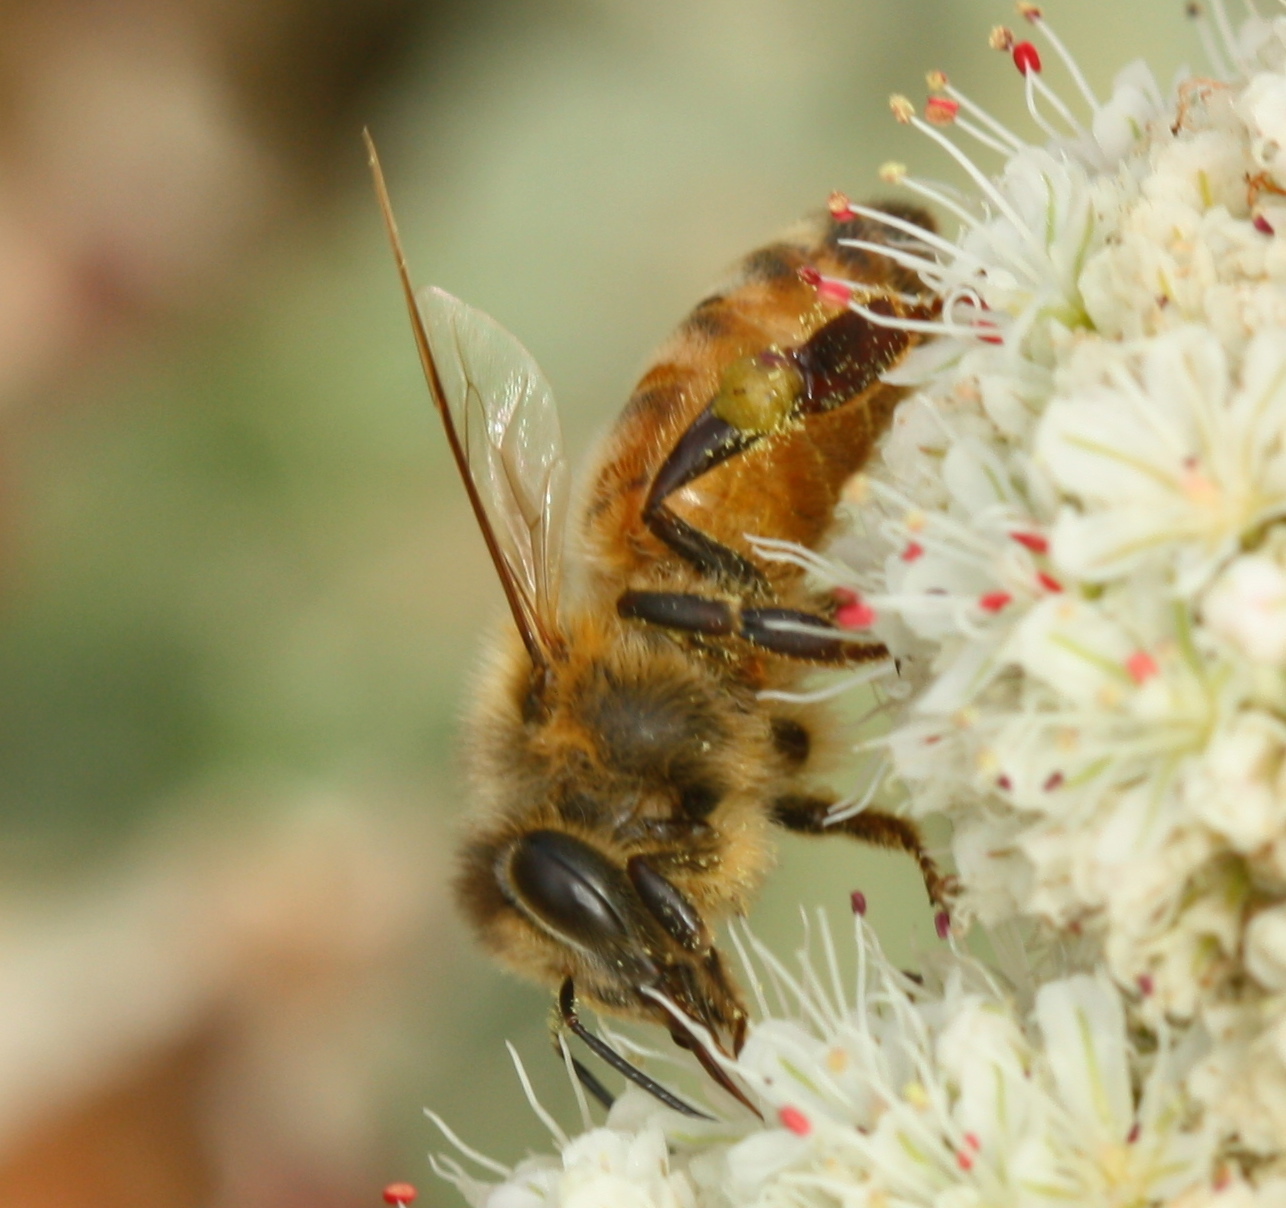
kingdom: Animalia
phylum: Arthropoda
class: Insecta
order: Hymenoptera
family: Apidae
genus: Apis
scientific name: Apis mellifera
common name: Honey bee
